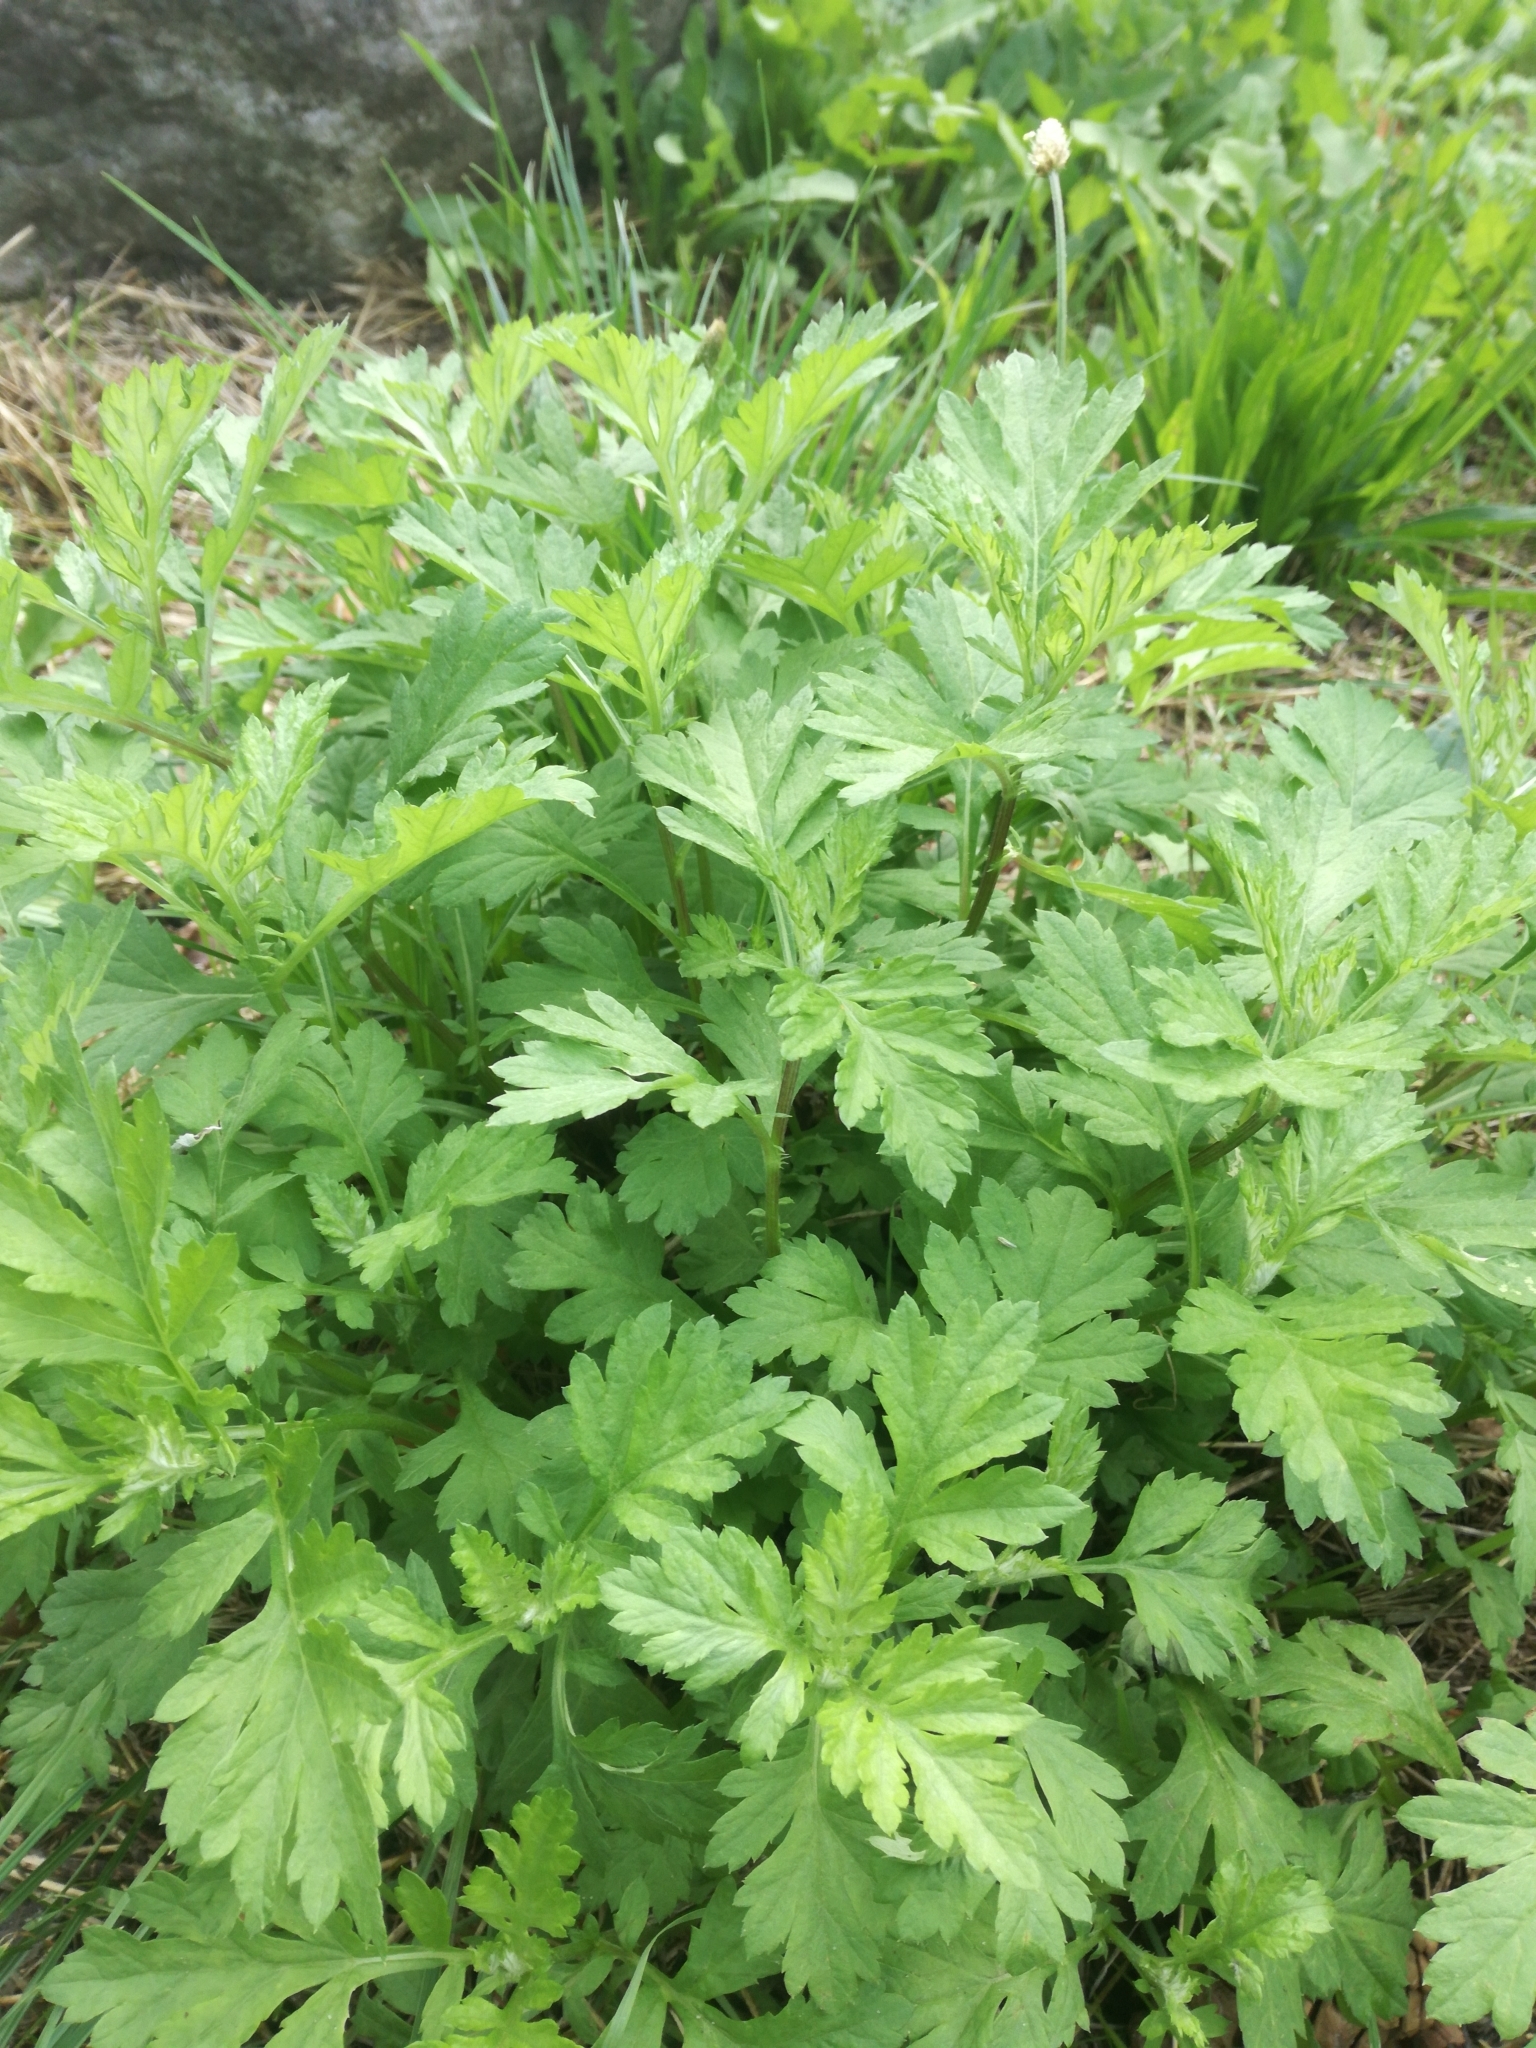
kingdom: Plantae
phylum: Tracheophyta
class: Magnoliopsida
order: Asterales
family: Asteraceae
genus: Artemisia
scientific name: Artemisia vulgaris
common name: Mugwort
